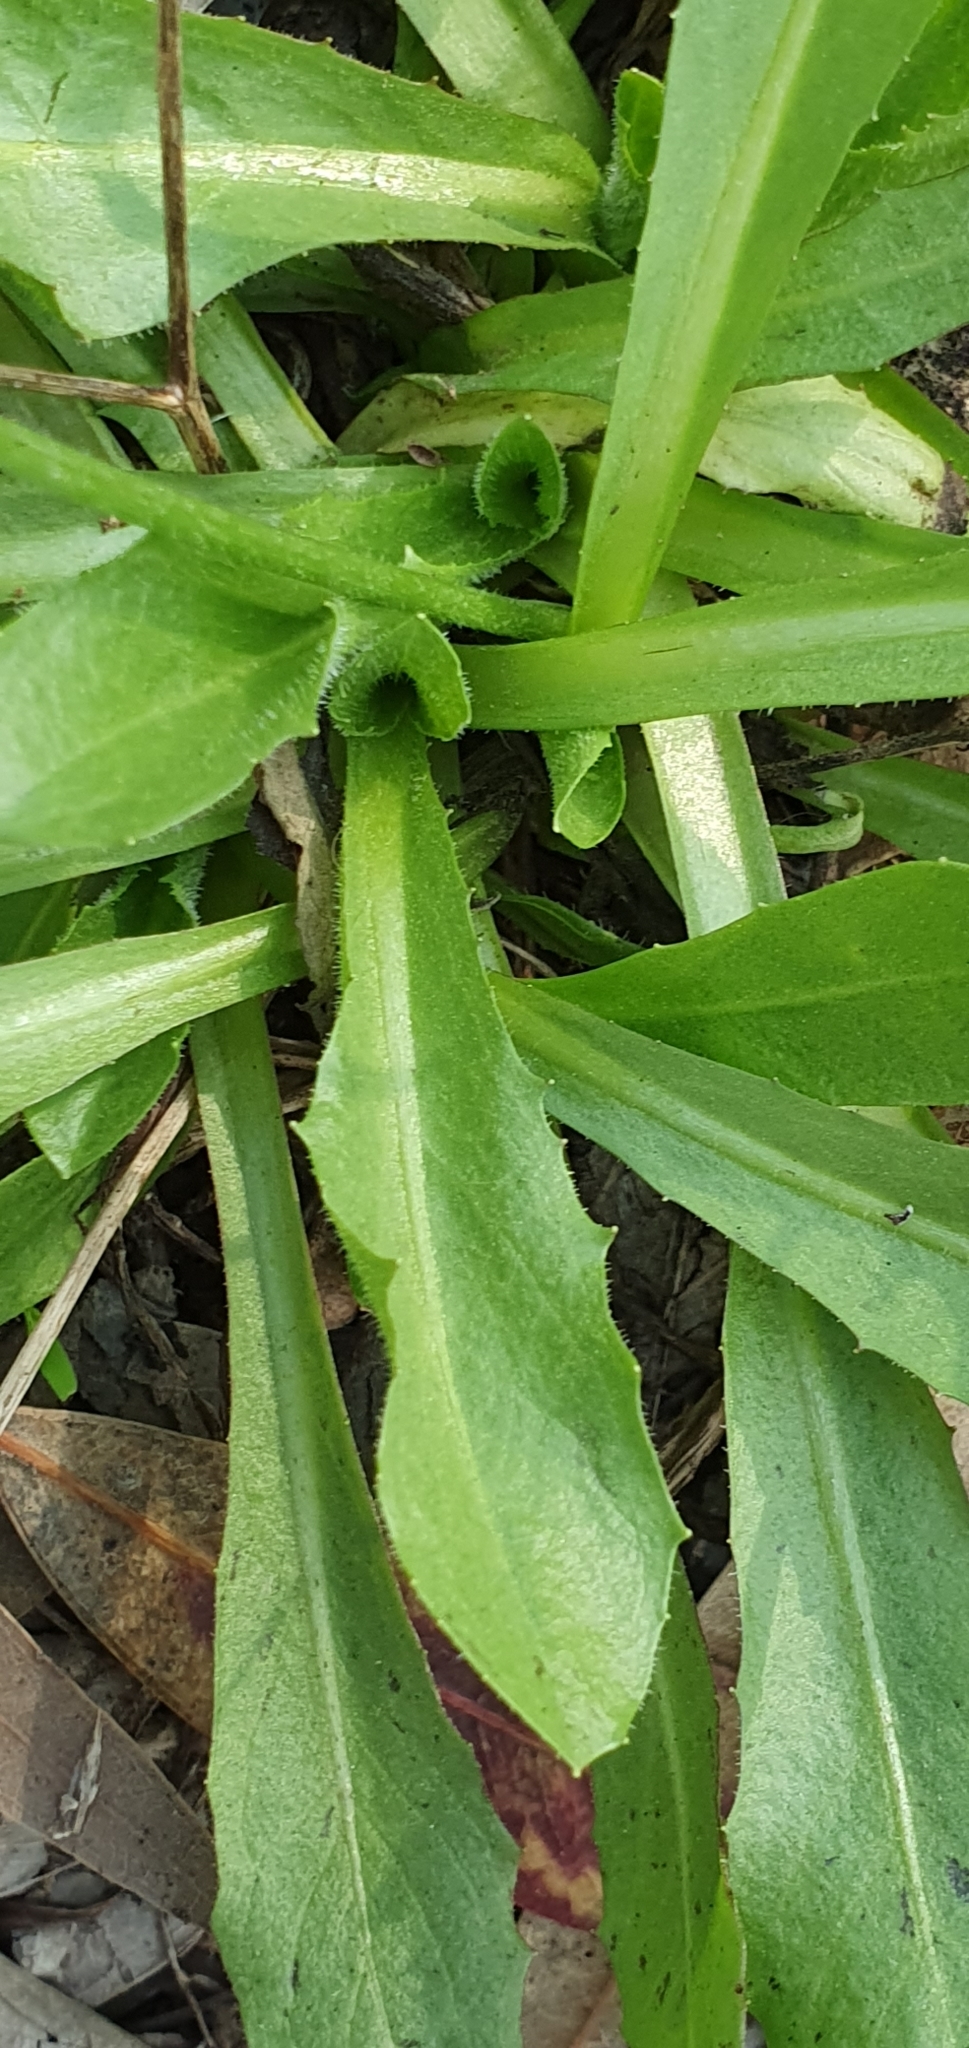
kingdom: Plantae
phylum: Tracheophyta
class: Magnoliopsida
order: Asterales
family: Asteraceae
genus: Picris
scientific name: Picris hieracioides
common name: Hawkweed oxtongue
